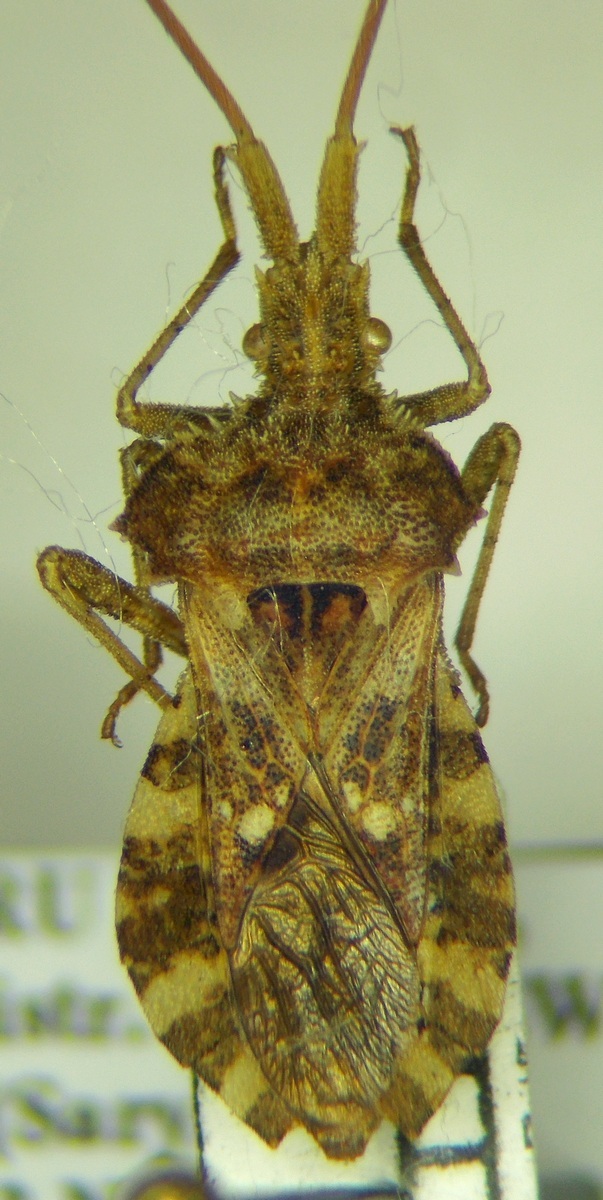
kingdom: Animalia
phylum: Arthropoda
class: Insecta
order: Hemiptera
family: Coreidae
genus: Centrocoris
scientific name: Centrocoris spiniger
